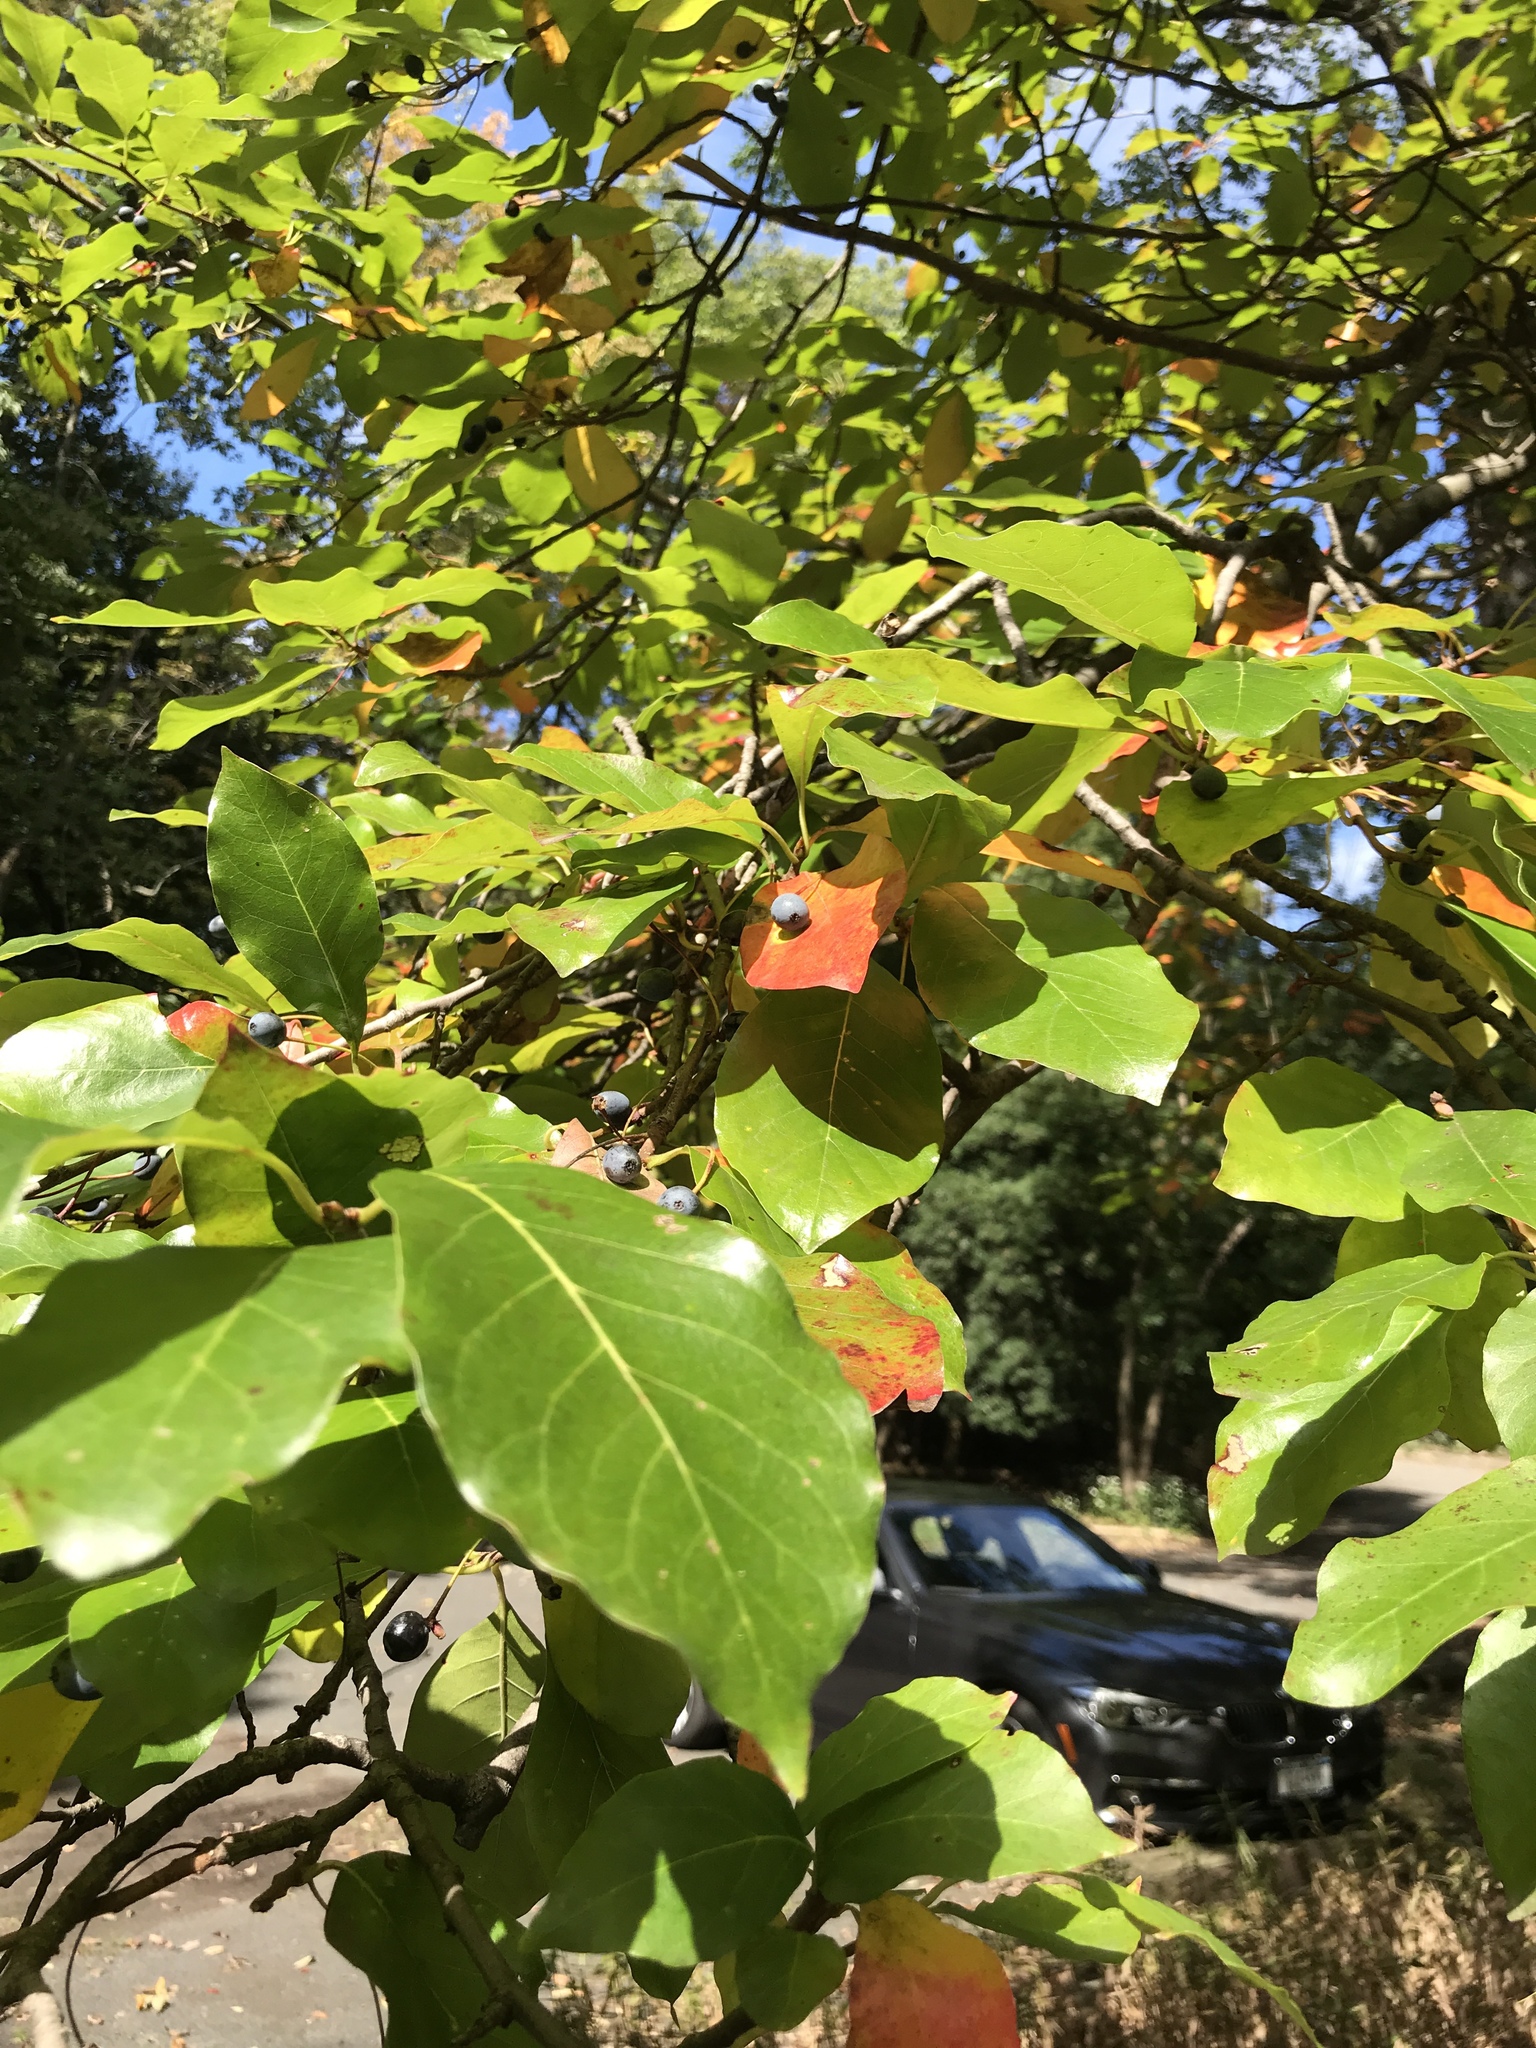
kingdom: Plantae
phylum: Tracheophyta
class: Magnoliopsida
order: Cornales
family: Nyssaceae
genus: Nyssa
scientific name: Nyssa sylvatica
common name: Black tupelo
